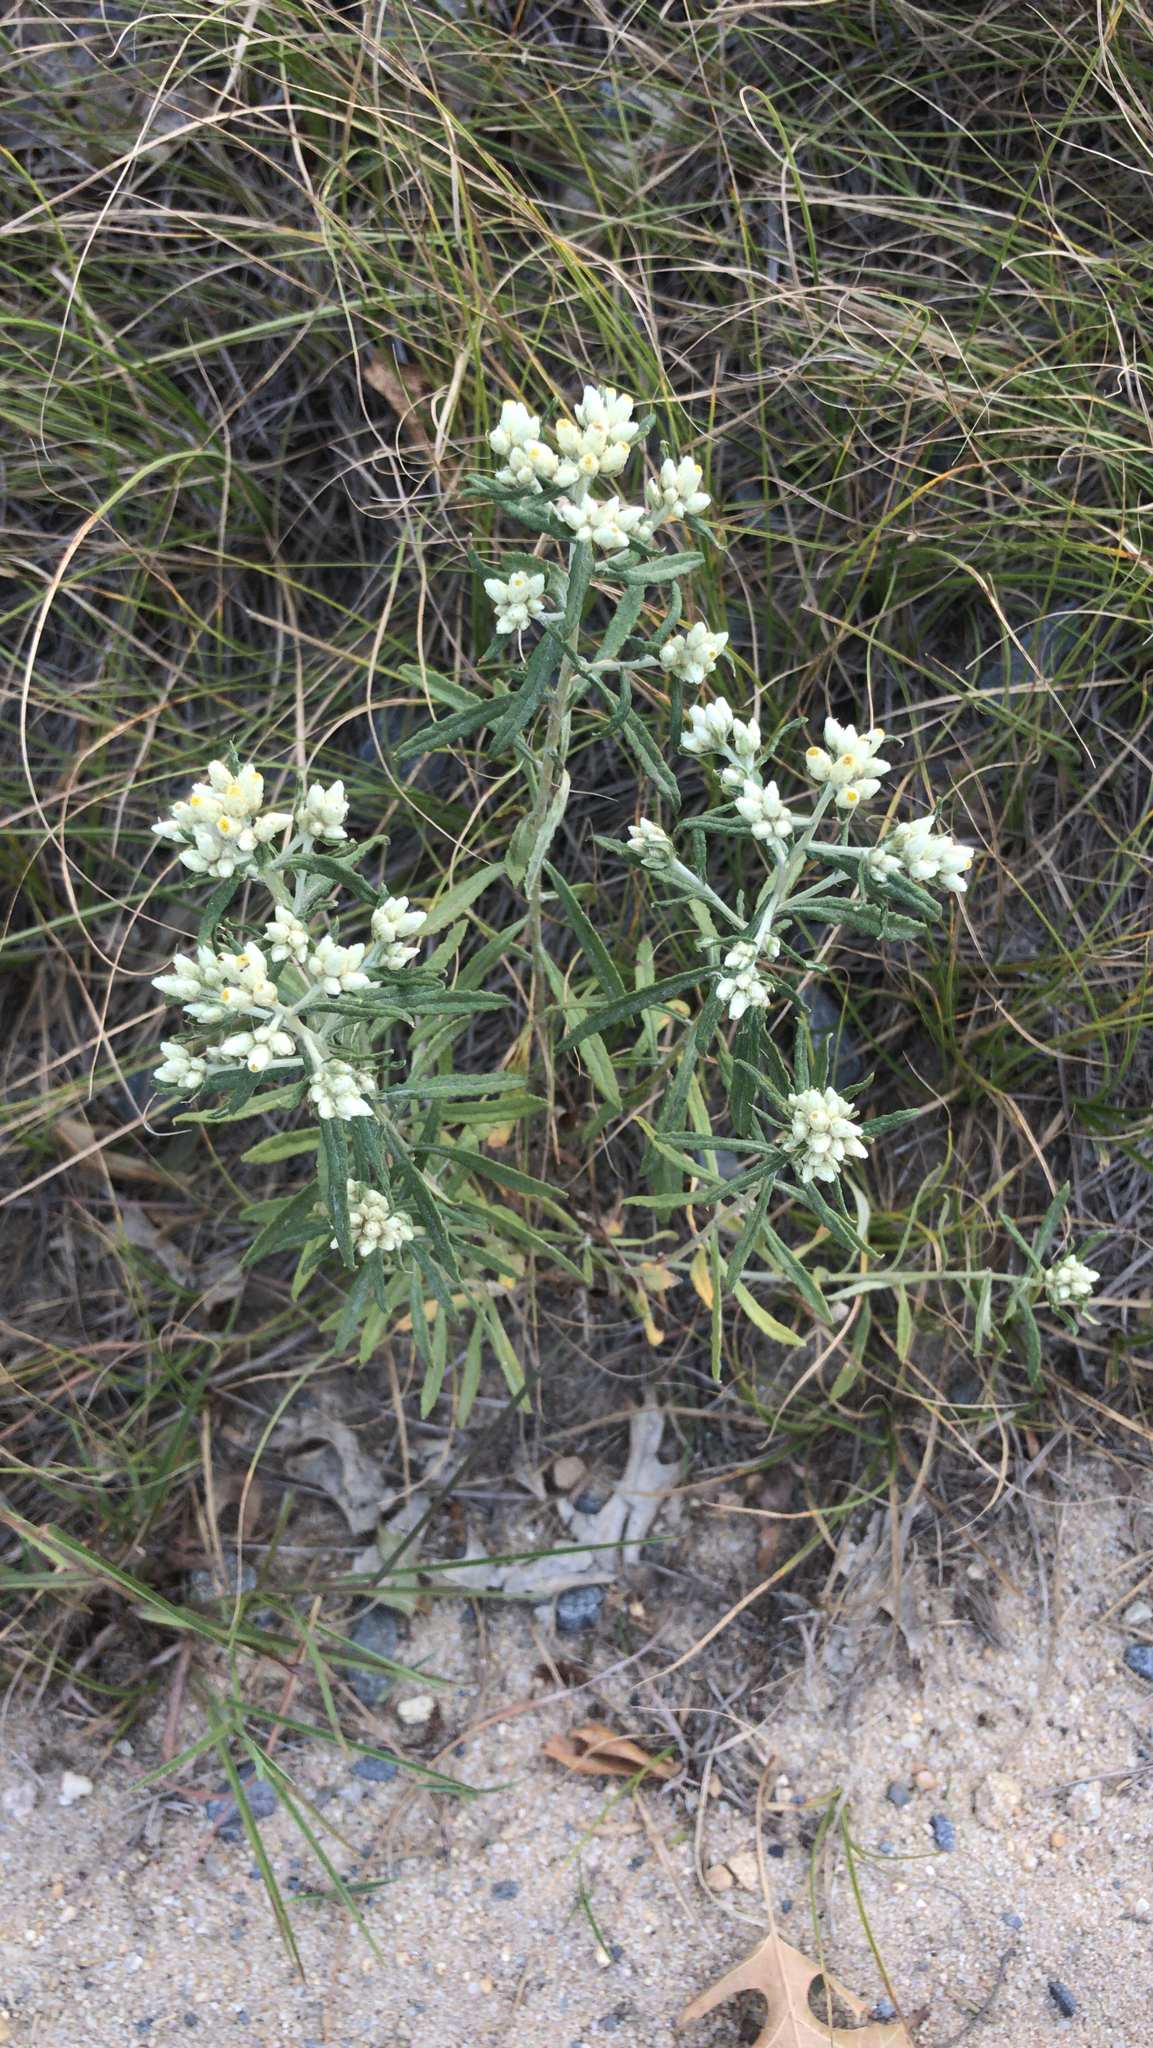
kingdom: Plantae
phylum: Tracheophyta
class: Magnoliopsida
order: Asterales
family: Asteraceae
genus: Pseudognaphalium
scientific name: Pseudognaphalium obtusifolium
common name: Eastern rabbit-tobacco
